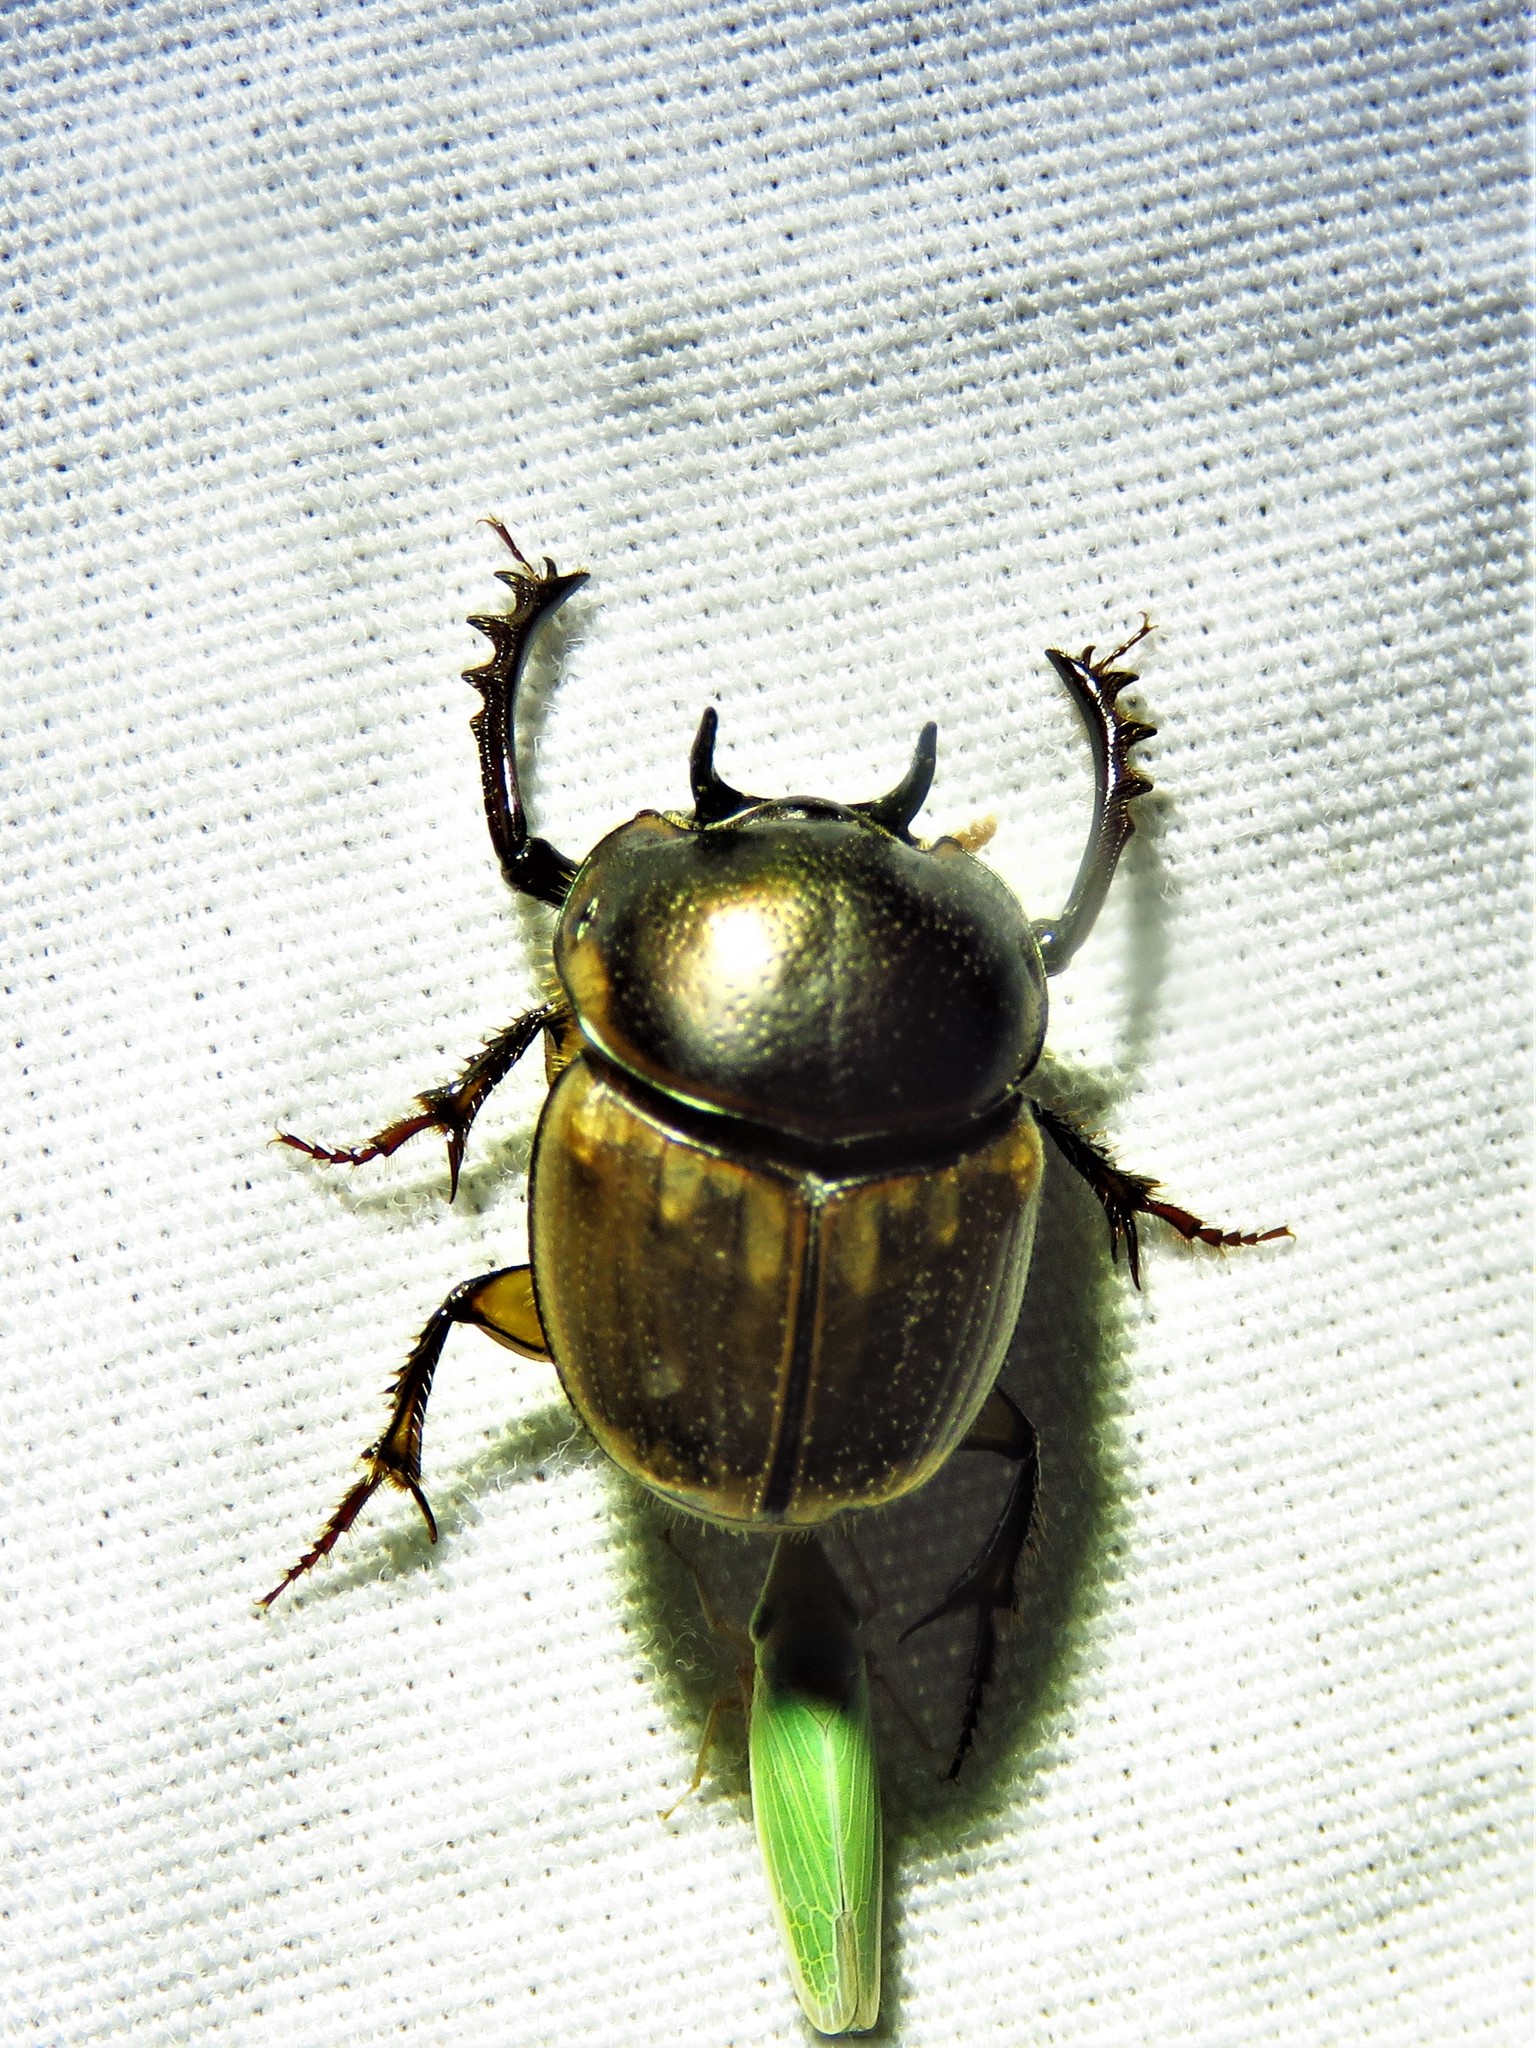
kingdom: Animalia
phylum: Arthropoda
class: Insecta
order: Coleoptera
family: Scarabaeidae
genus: Digitonthophagus
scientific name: Digitonthophagus gazella
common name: Brown dung beetle
